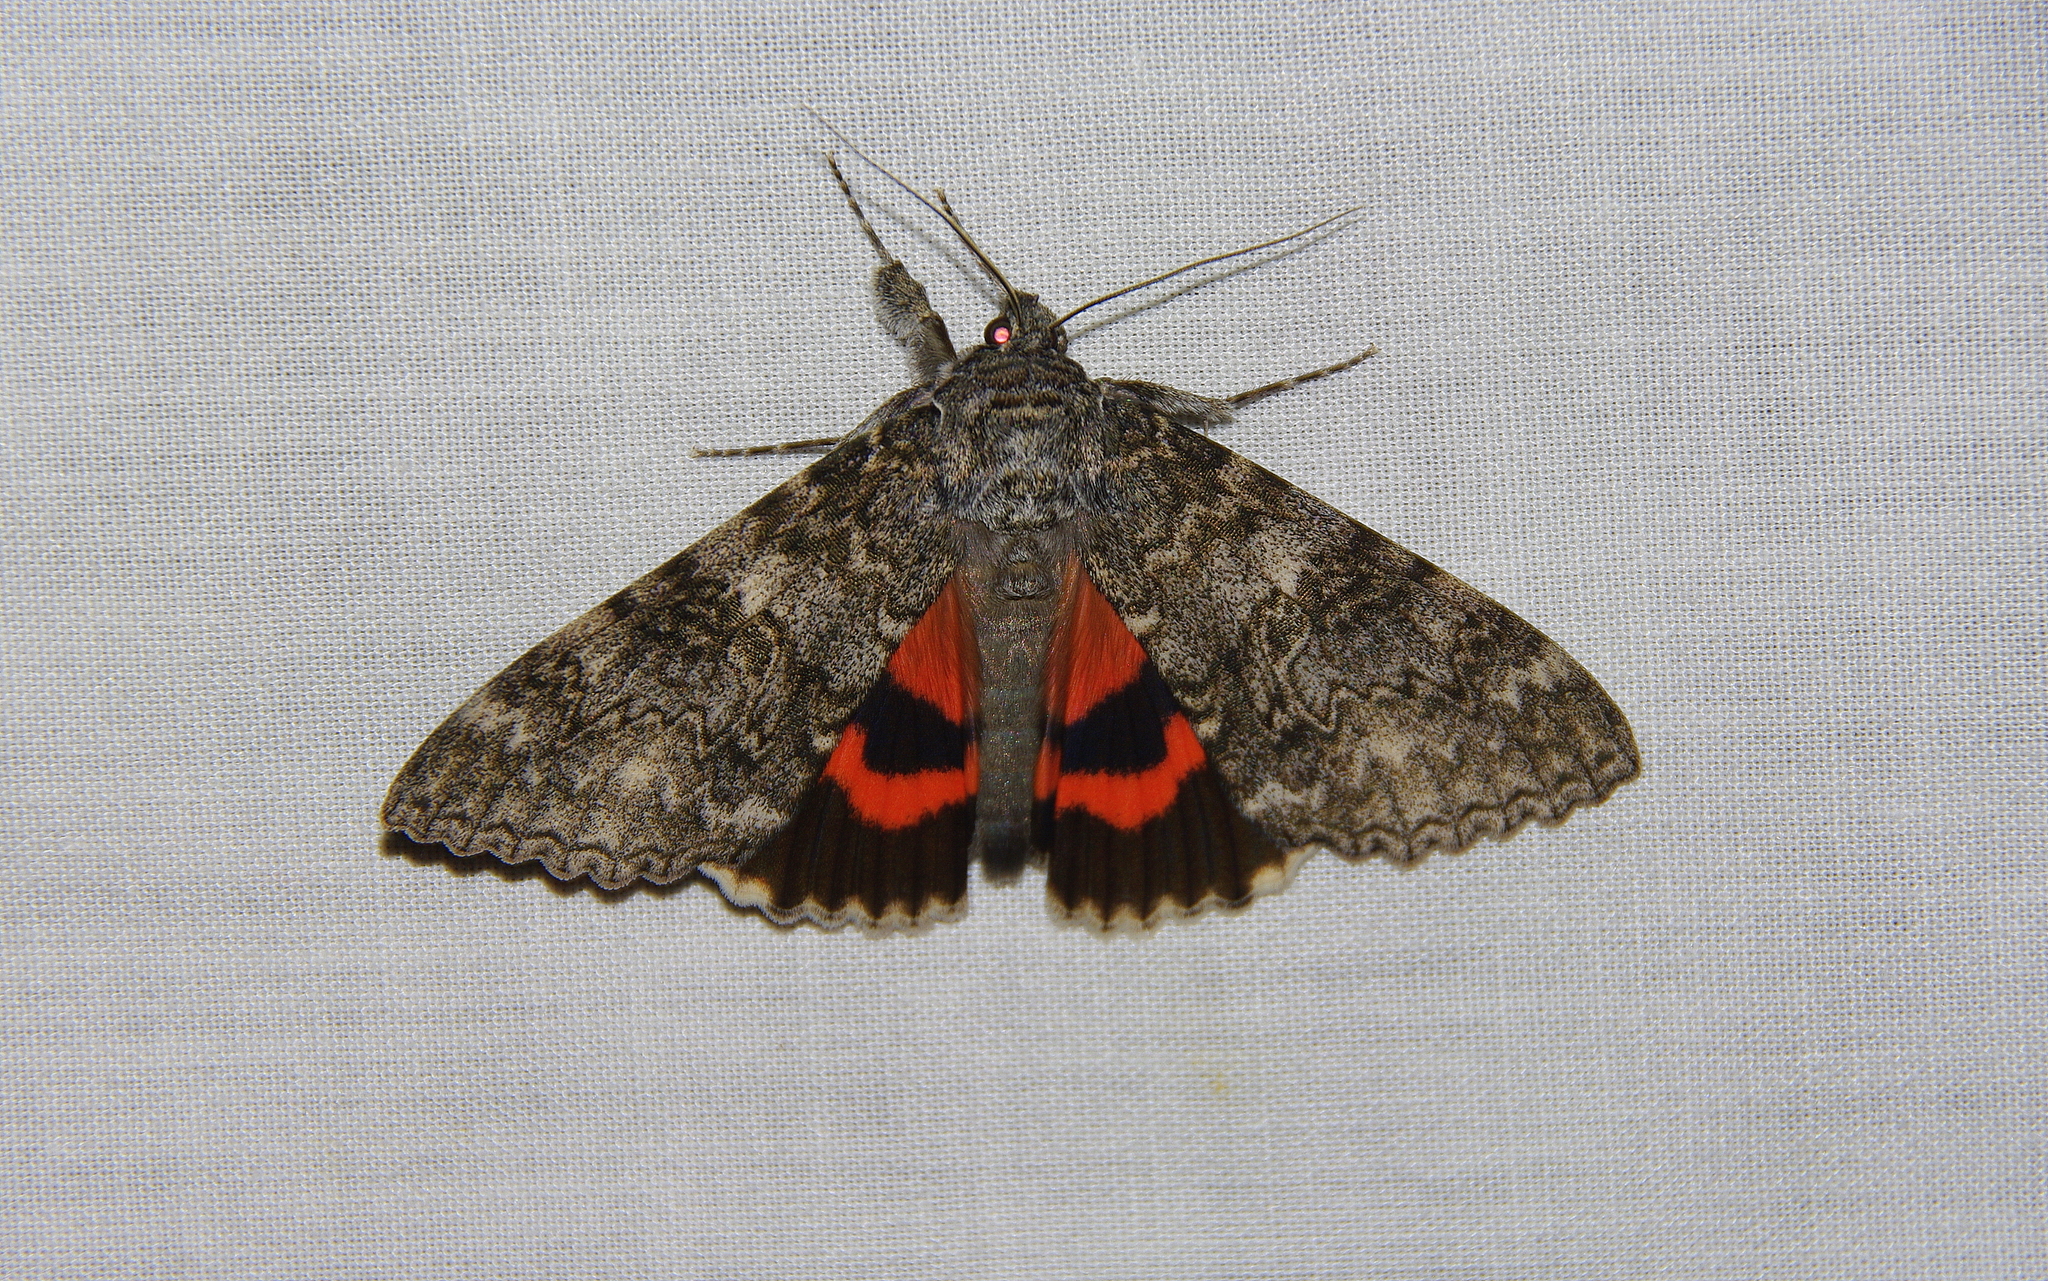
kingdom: Animalia
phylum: Arthropoda
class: Insecta
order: Lepidoptera
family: Erebidae
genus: Catocala
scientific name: Catocala unijuga
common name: Once-married underwing
